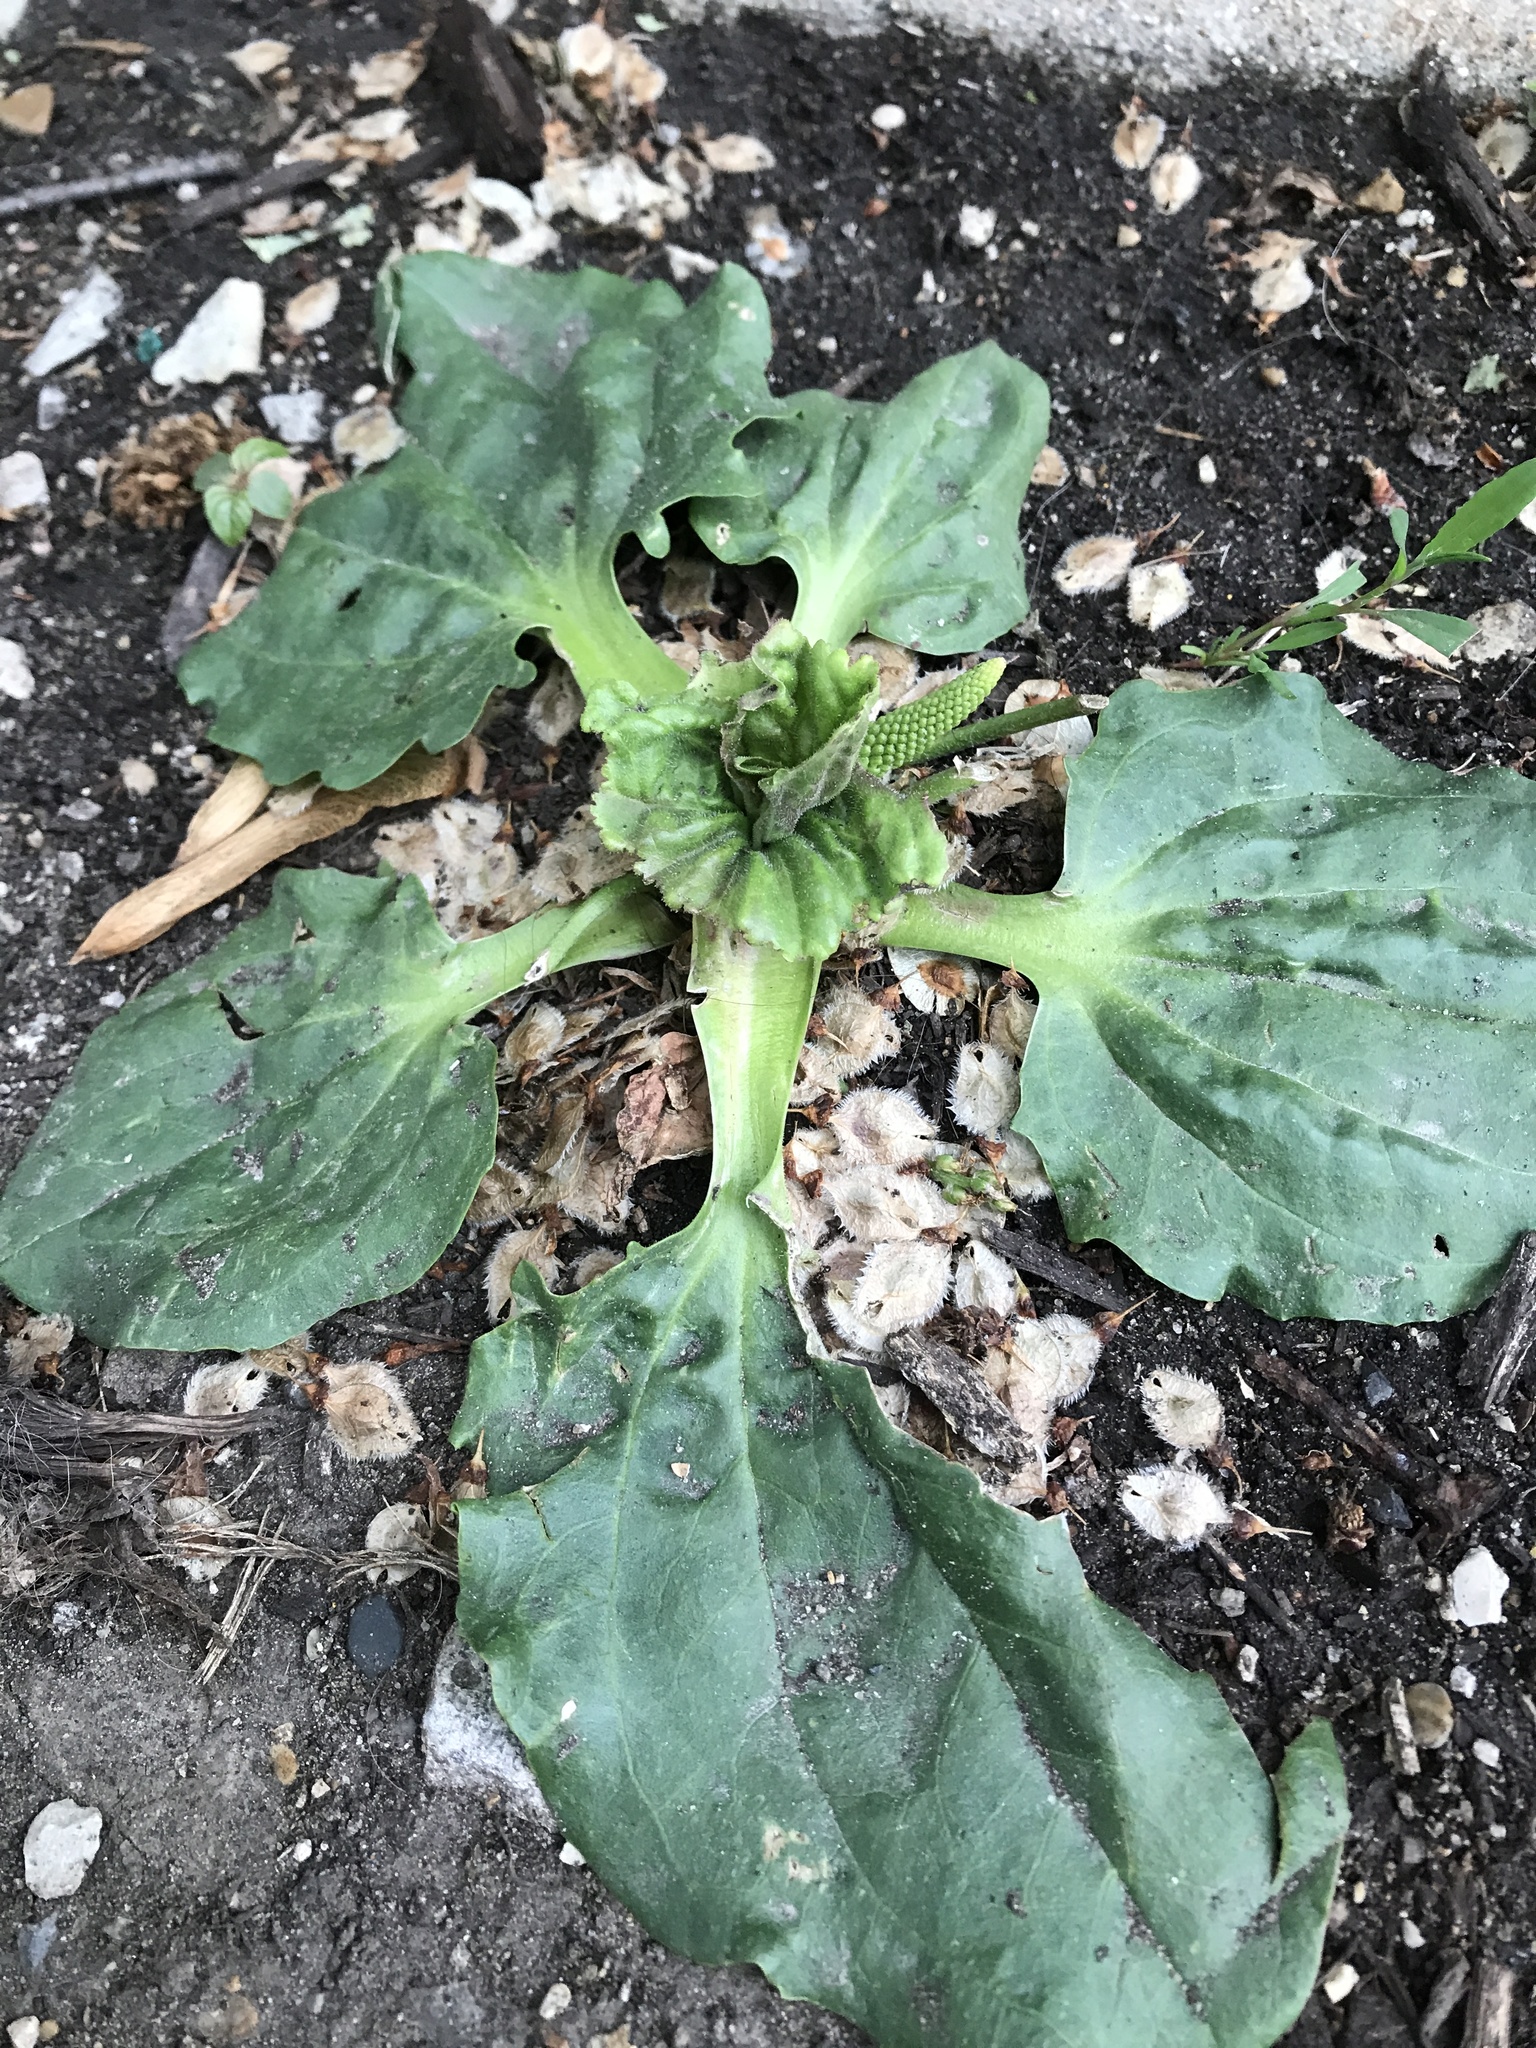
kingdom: Plantae
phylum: Tracheophyta
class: Magnoliopsida
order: Lamiales
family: Plantaginaceae
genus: Plantago
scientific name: Plantago major
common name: Common plantain
